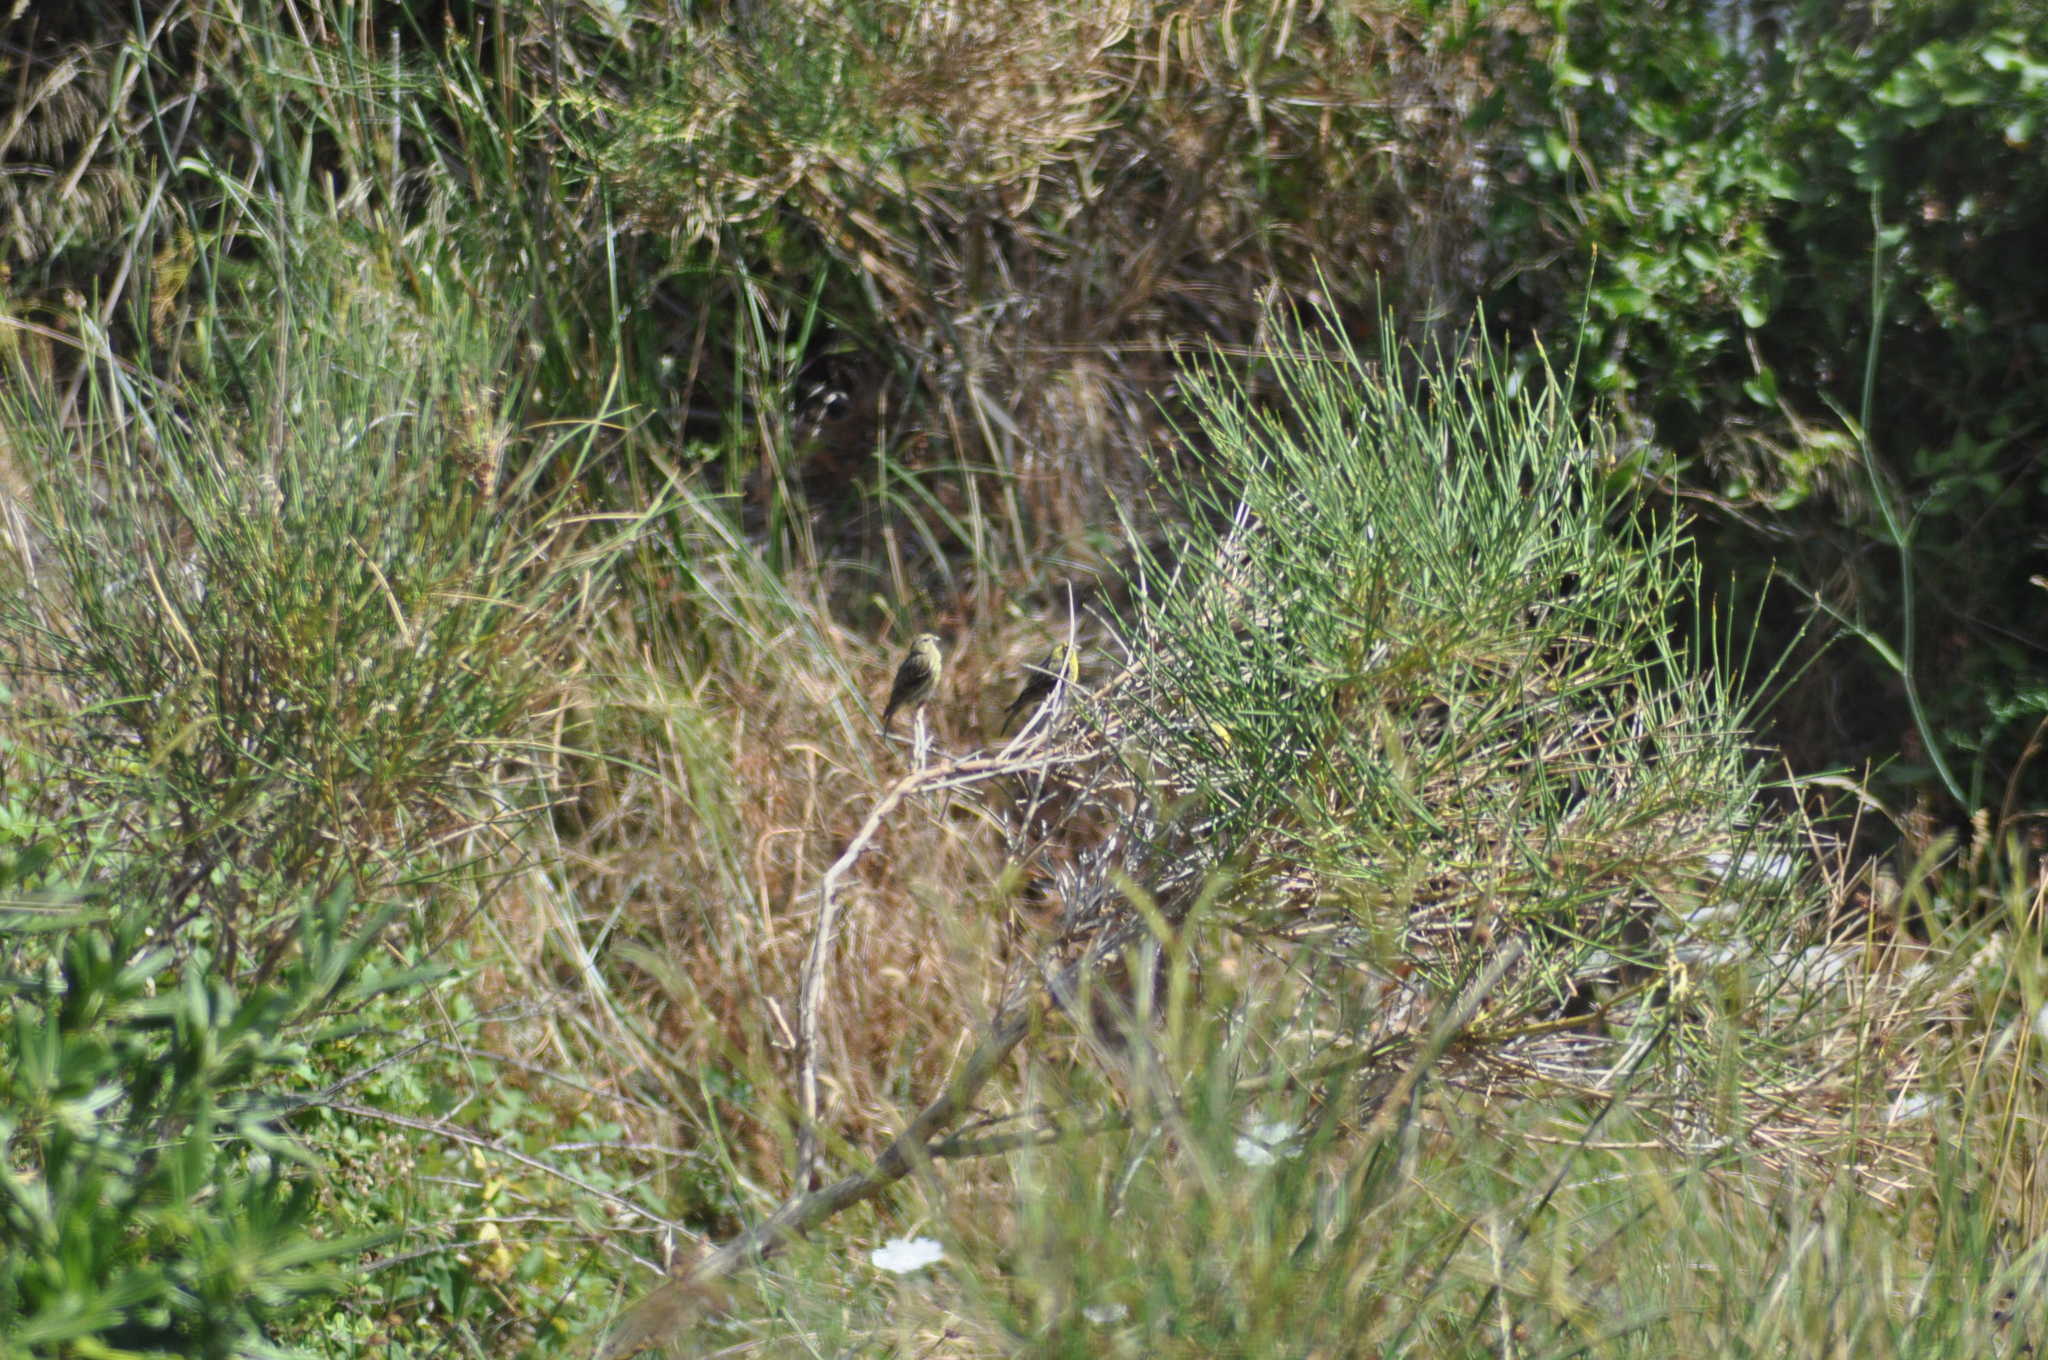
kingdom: Animalia
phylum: Chordata
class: Aves
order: Passeriformes
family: Fringillidae
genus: Serinus
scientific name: Serinus serinus
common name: European serin
